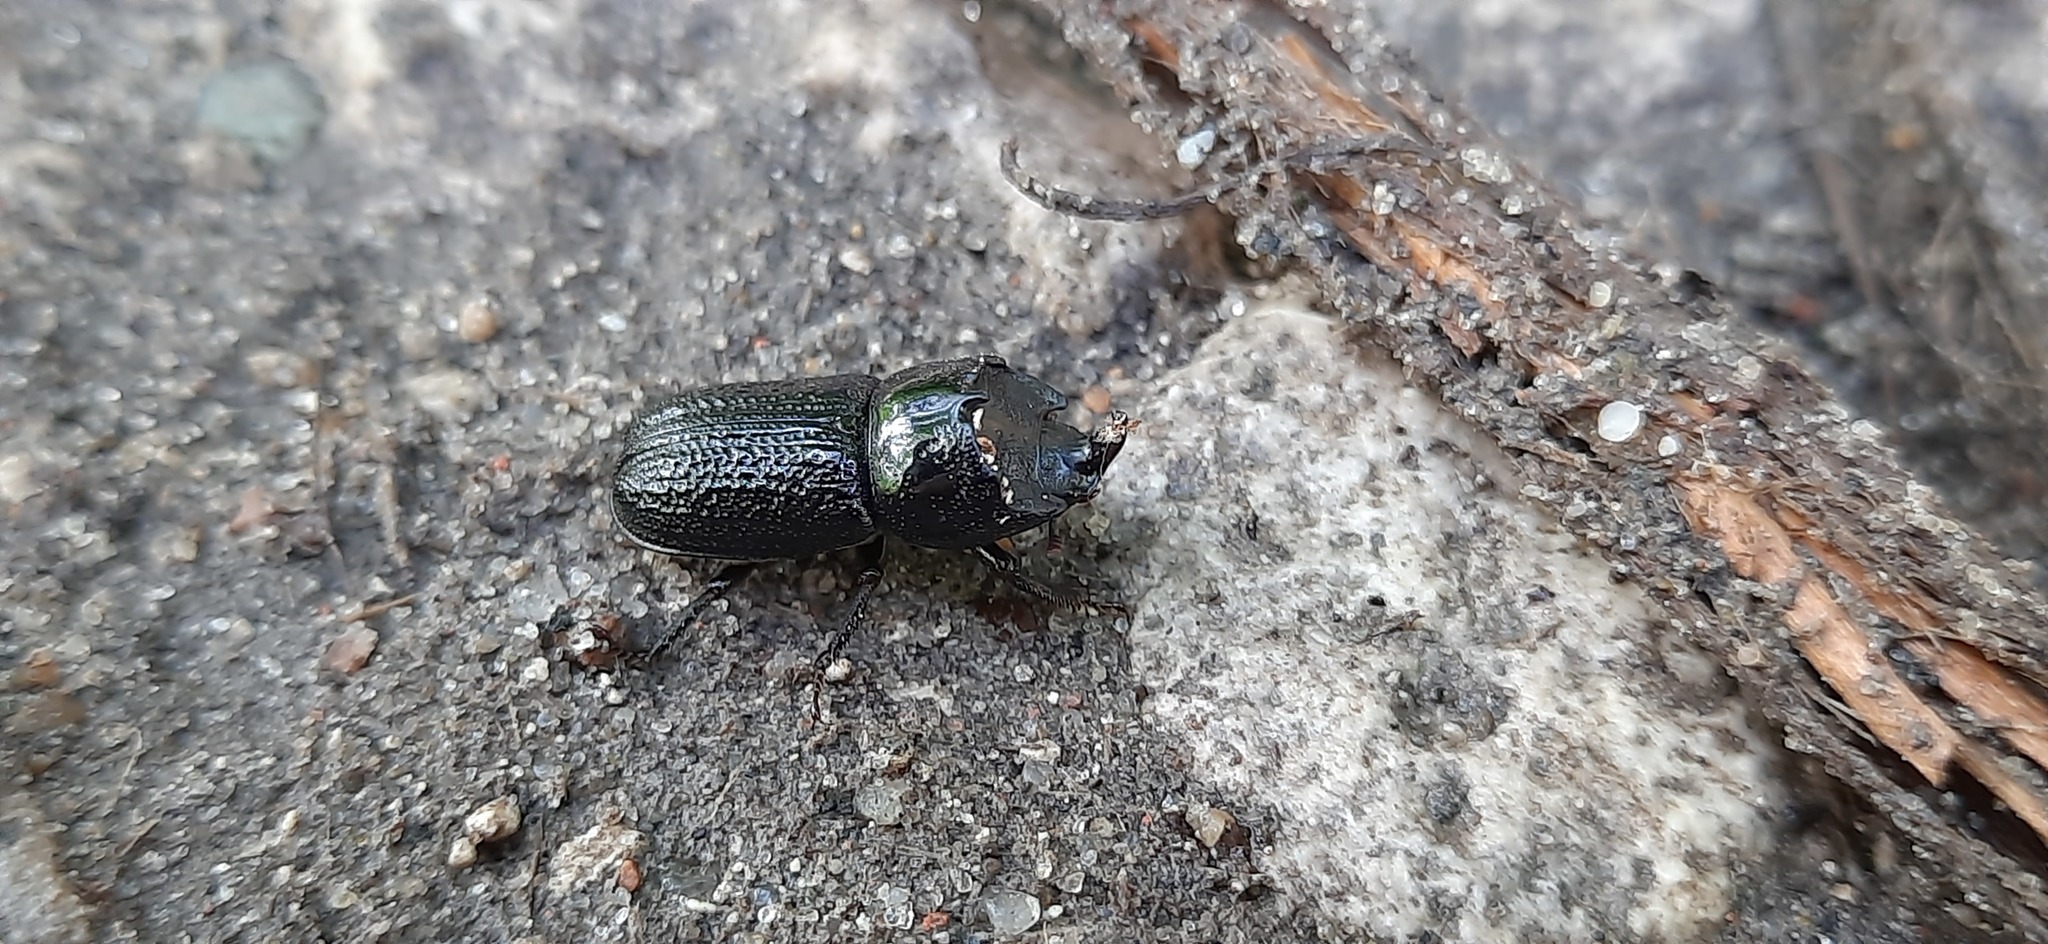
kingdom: Animalia
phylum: Arthropoda
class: Insecta
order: Coleoptera
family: Lucanidae
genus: Sinodendron
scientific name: Sinodendron cylindricum
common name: Rhinoceros beetle
